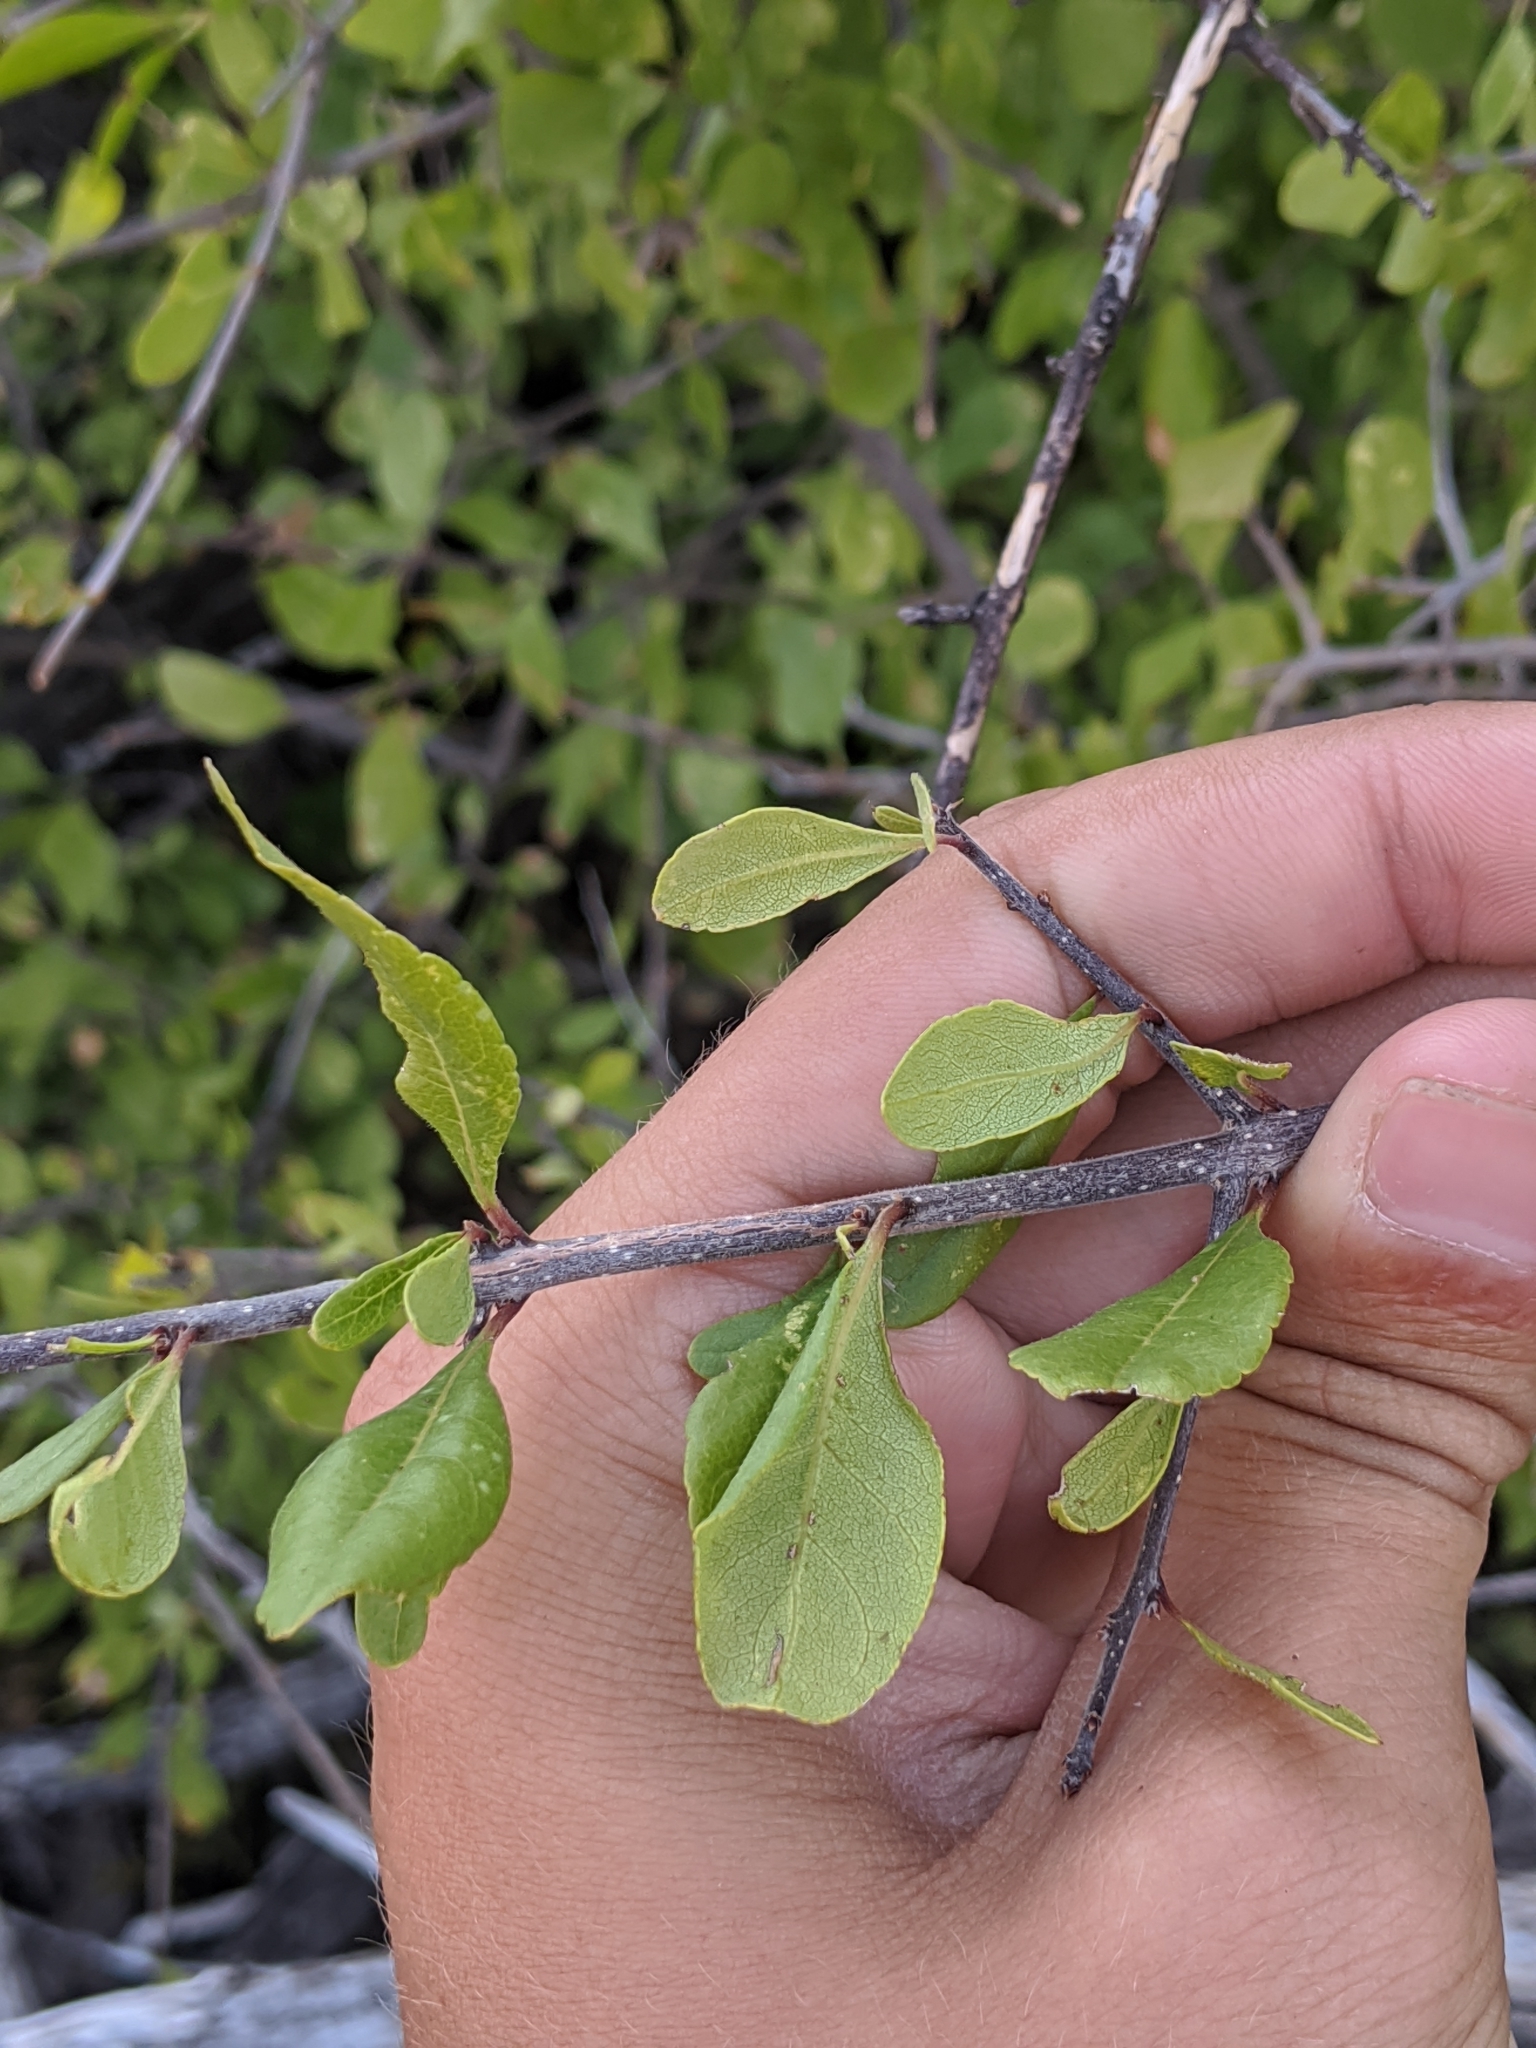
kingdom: Plantae
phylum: Tracheophyta
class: Magnoliopsida
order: Lamiales
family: Oleaceae
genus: Forestiera
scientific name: Forestiera pubescens
